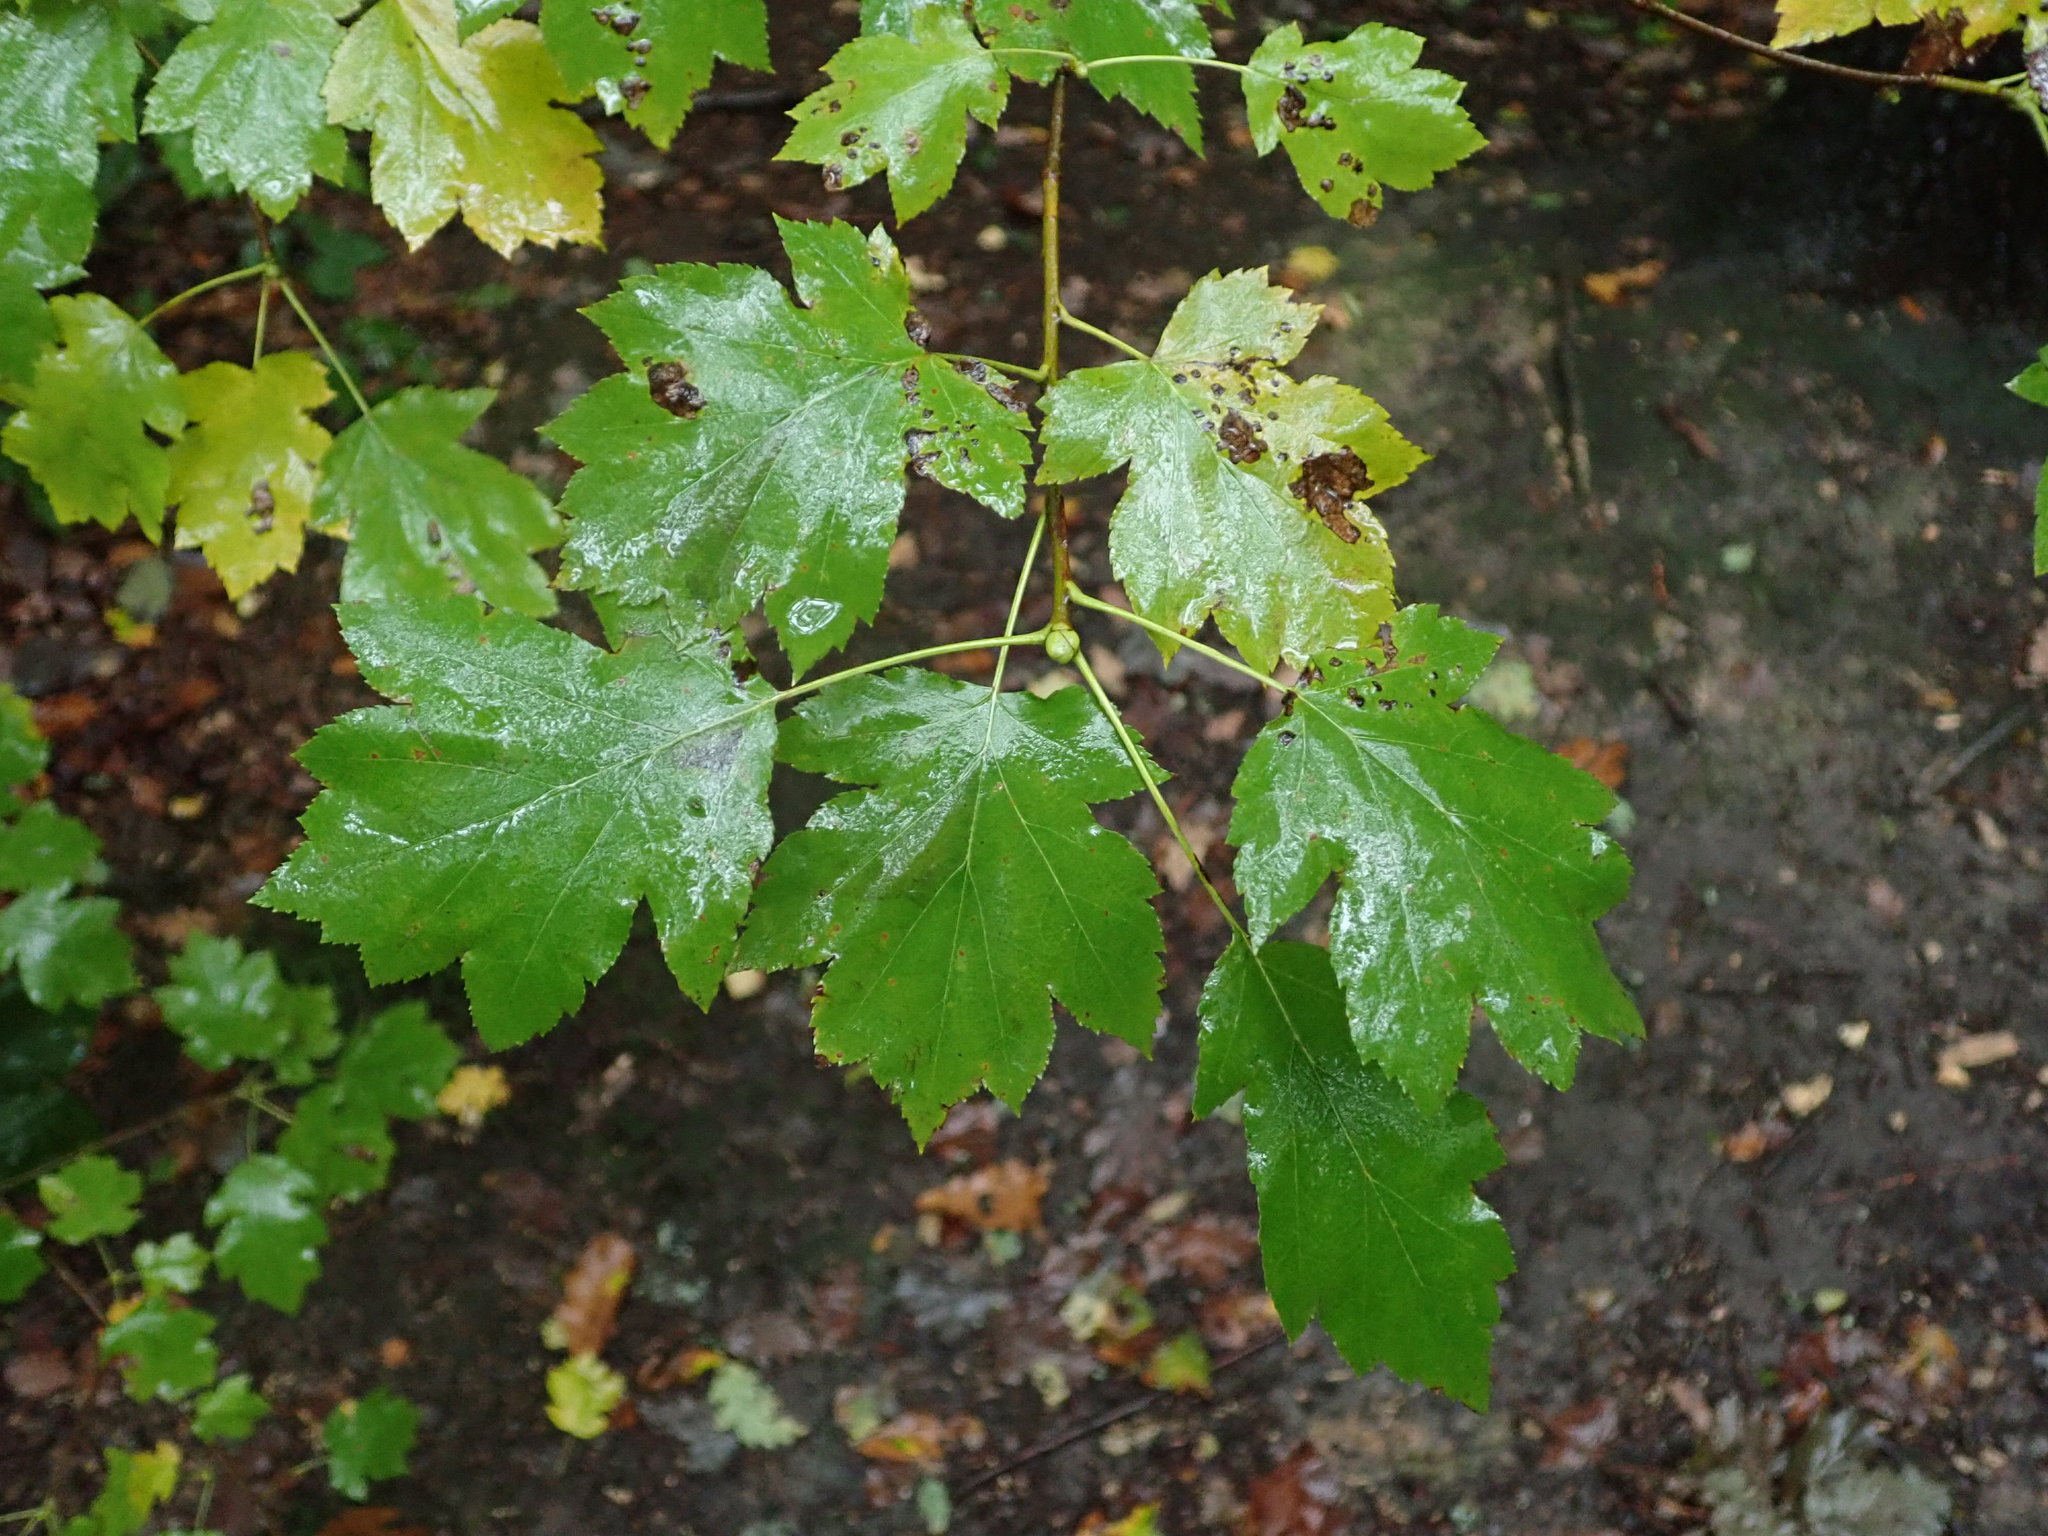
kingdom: Plantae
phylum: Tracheophyta
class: Magnoliopsida
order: Rosales
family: Rosaceae
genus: Torminalis
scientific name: Torminalis glaberrima
